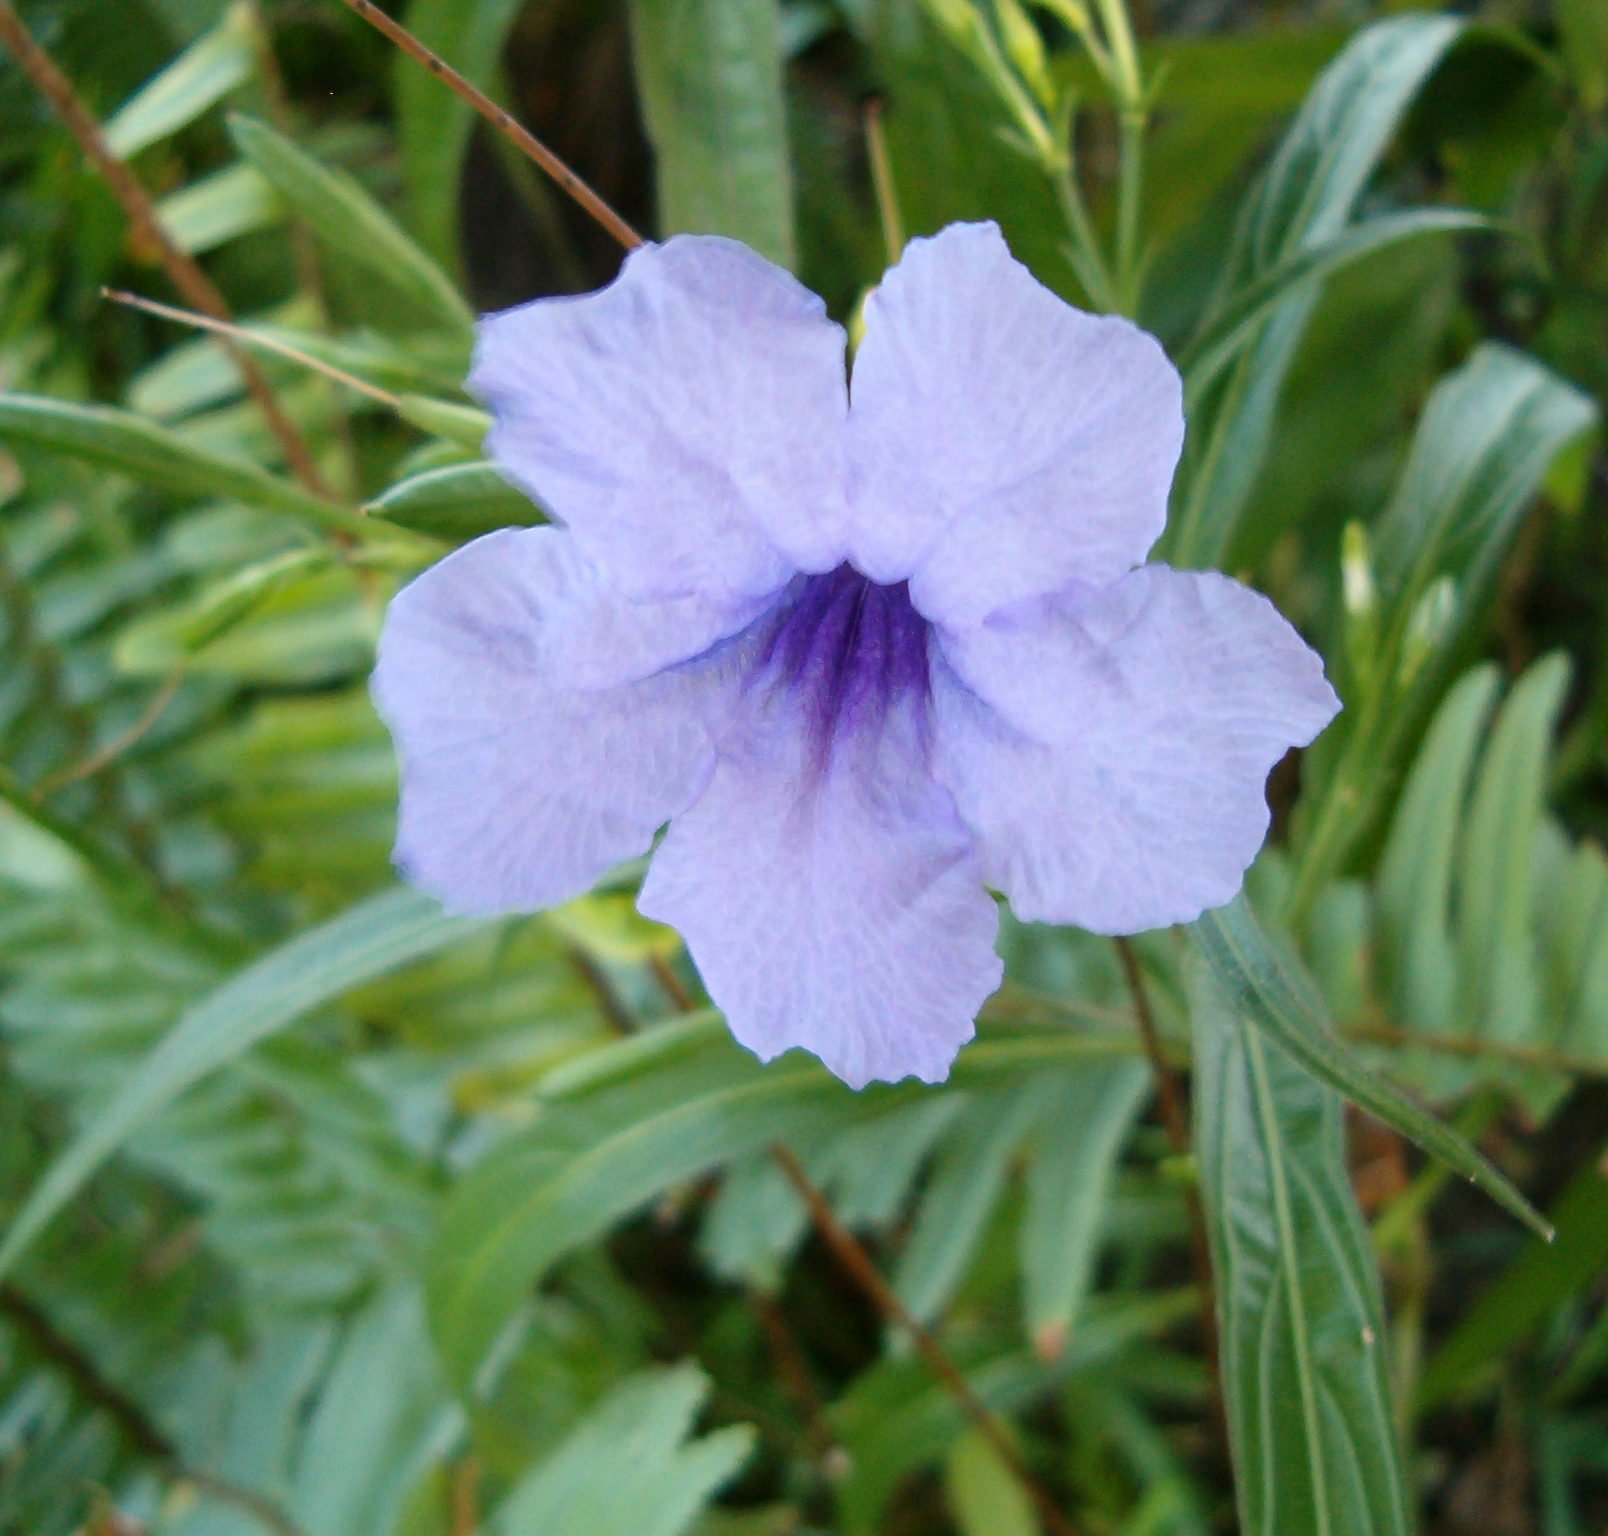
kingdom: Plantae
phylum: Tracheophyta
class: Magnoliopsida
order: Lamiales
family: Acanthaceae
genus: Ruellia
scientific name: Ruellia simplex
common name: Softseed wild petunia
